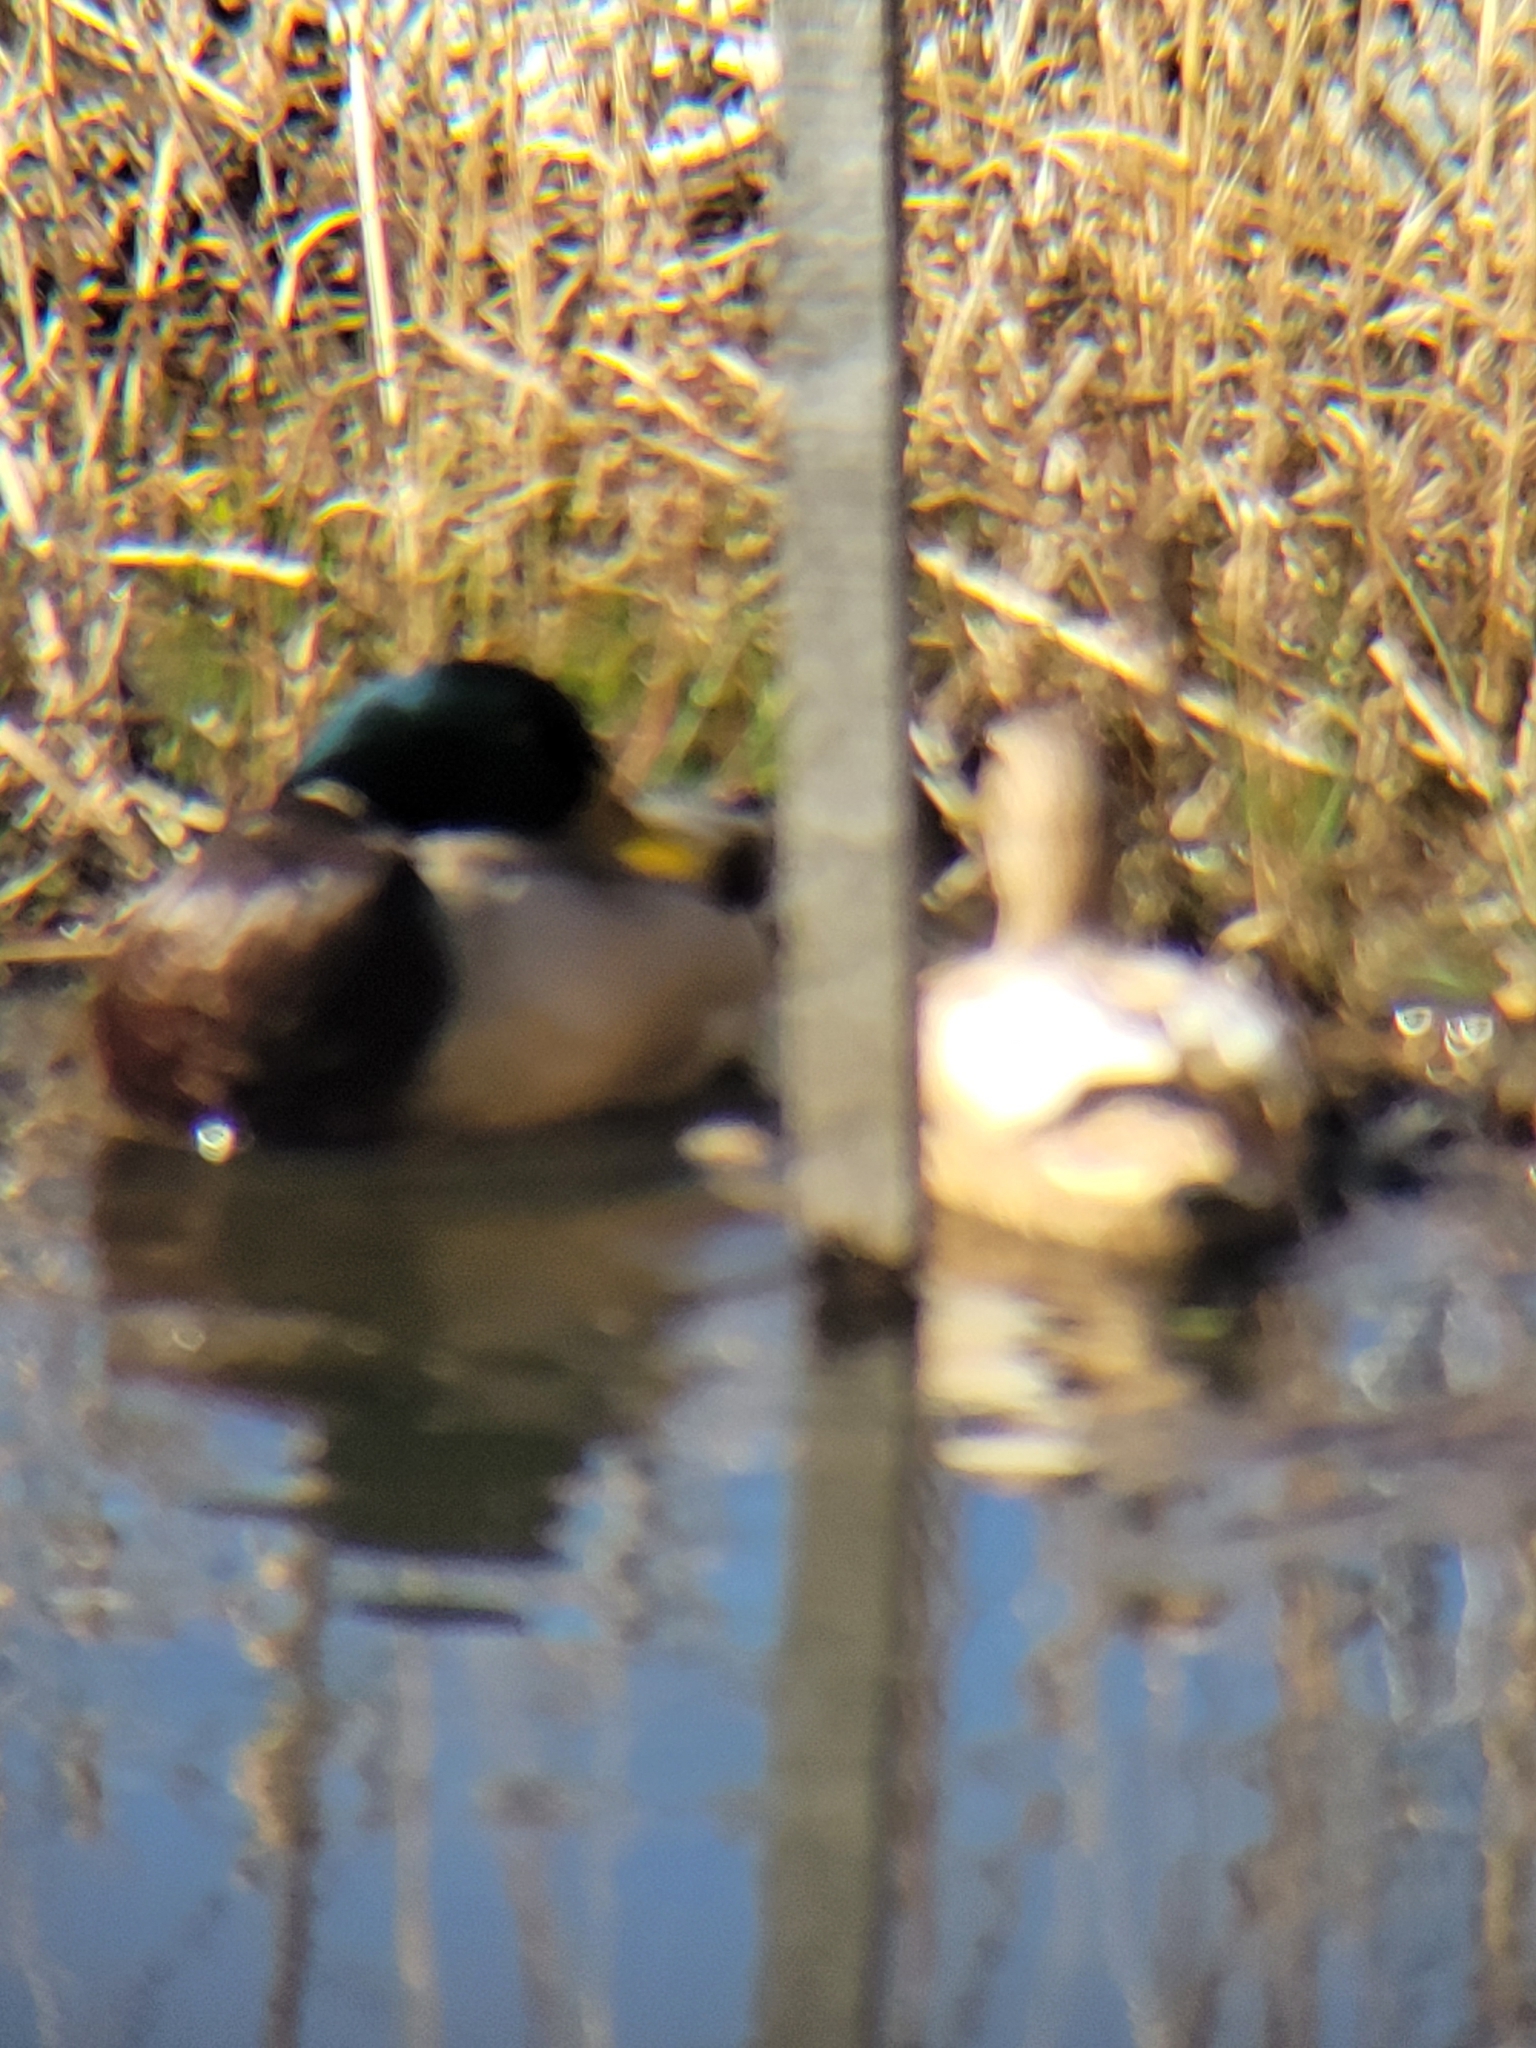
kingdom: Animalia
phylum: Chordata
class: Aves
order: Anseriformes
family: Anatidae
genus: Anas
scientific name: Anas platyrhynchos
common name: Mallard
